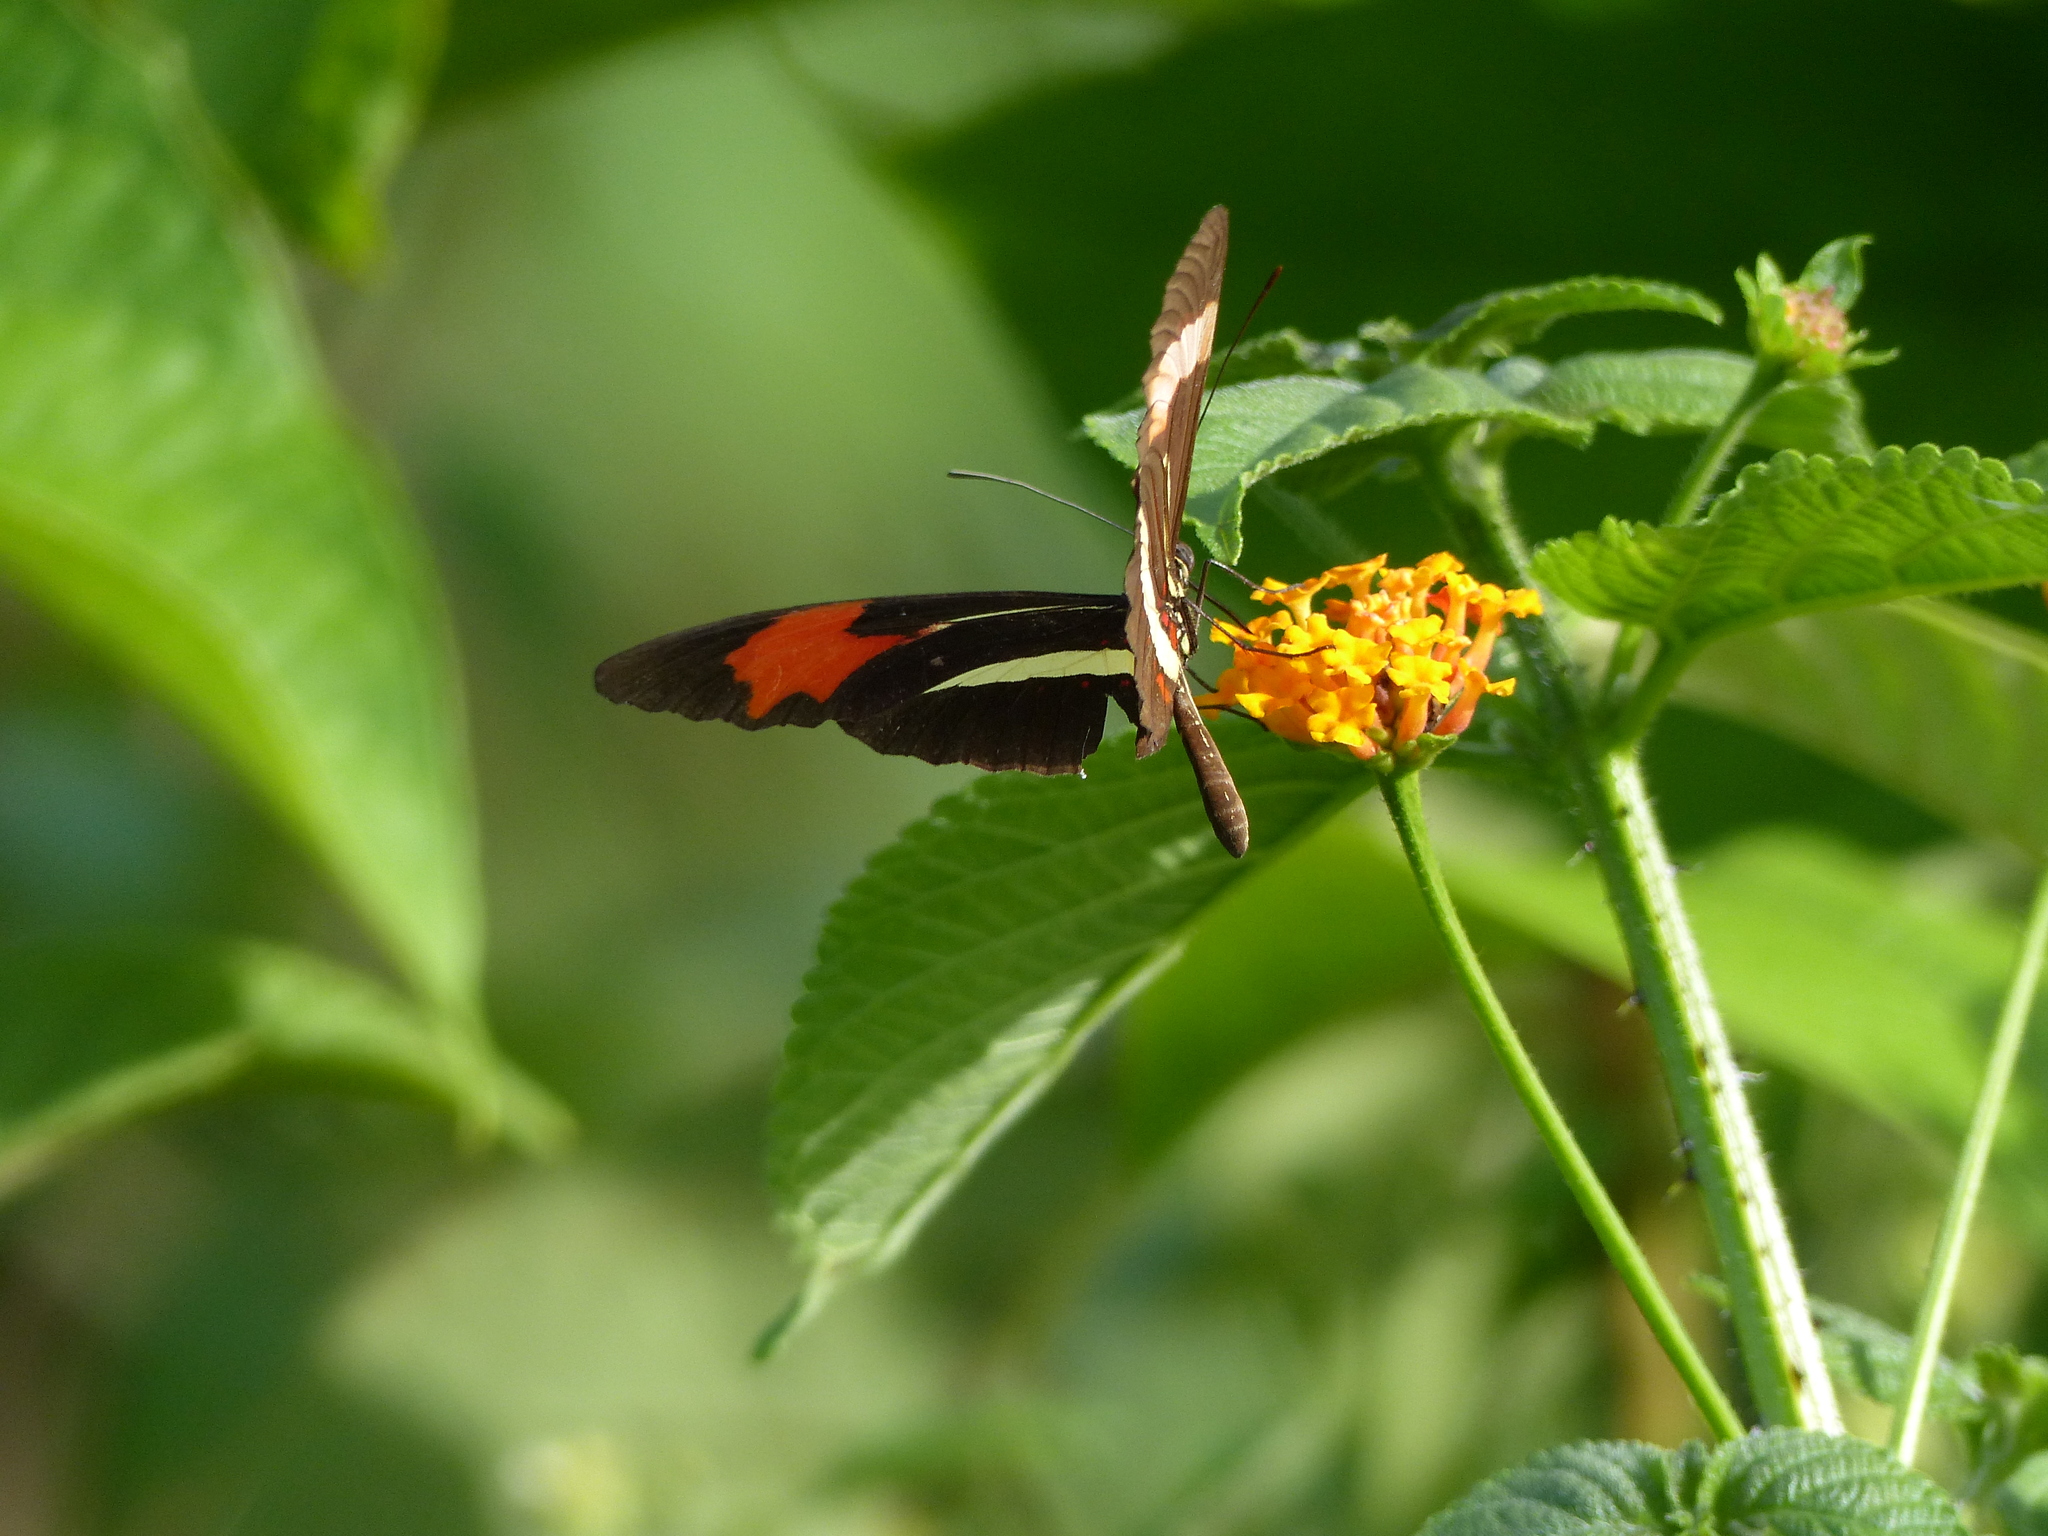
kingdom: Animalia
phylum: Arthropoda
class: Insecta
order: Lepidoptera
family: Nymphalidae
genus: Heliconius
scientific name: Heliconius erato
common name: Common patch longwing
